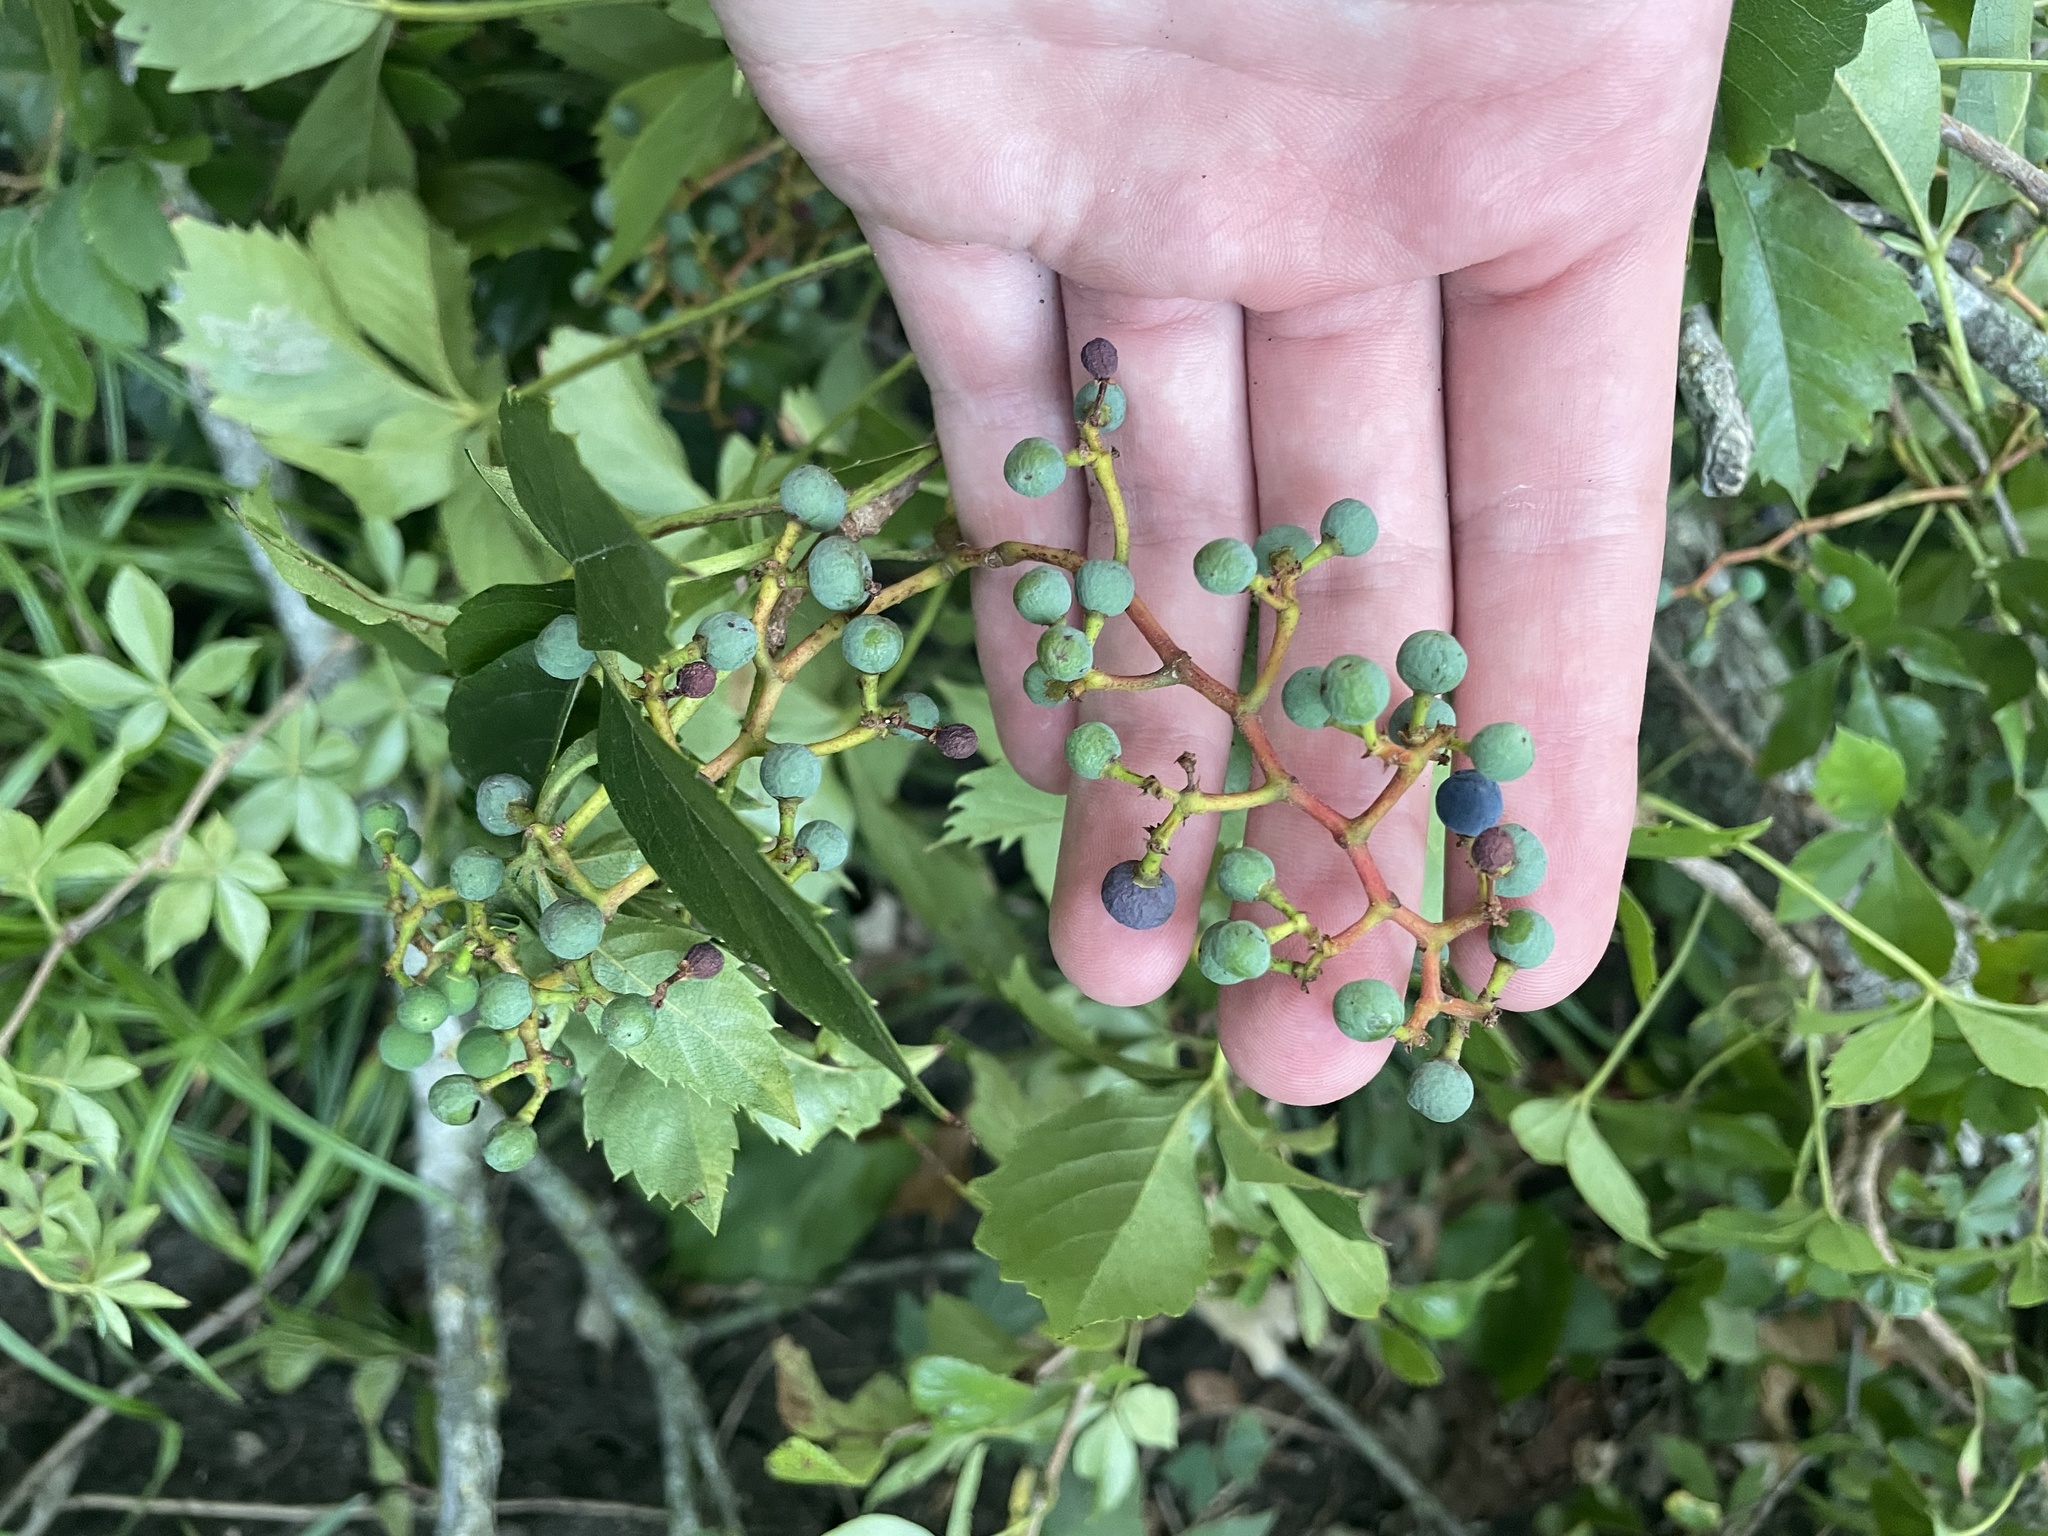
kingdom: Plantae
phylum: Tracheophyta
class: Magnoliopsida
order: Vitales
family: Vitaceae
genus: Parthenocissus
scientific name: Parthenocissus quinquefolia
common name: Virginia-creeper
